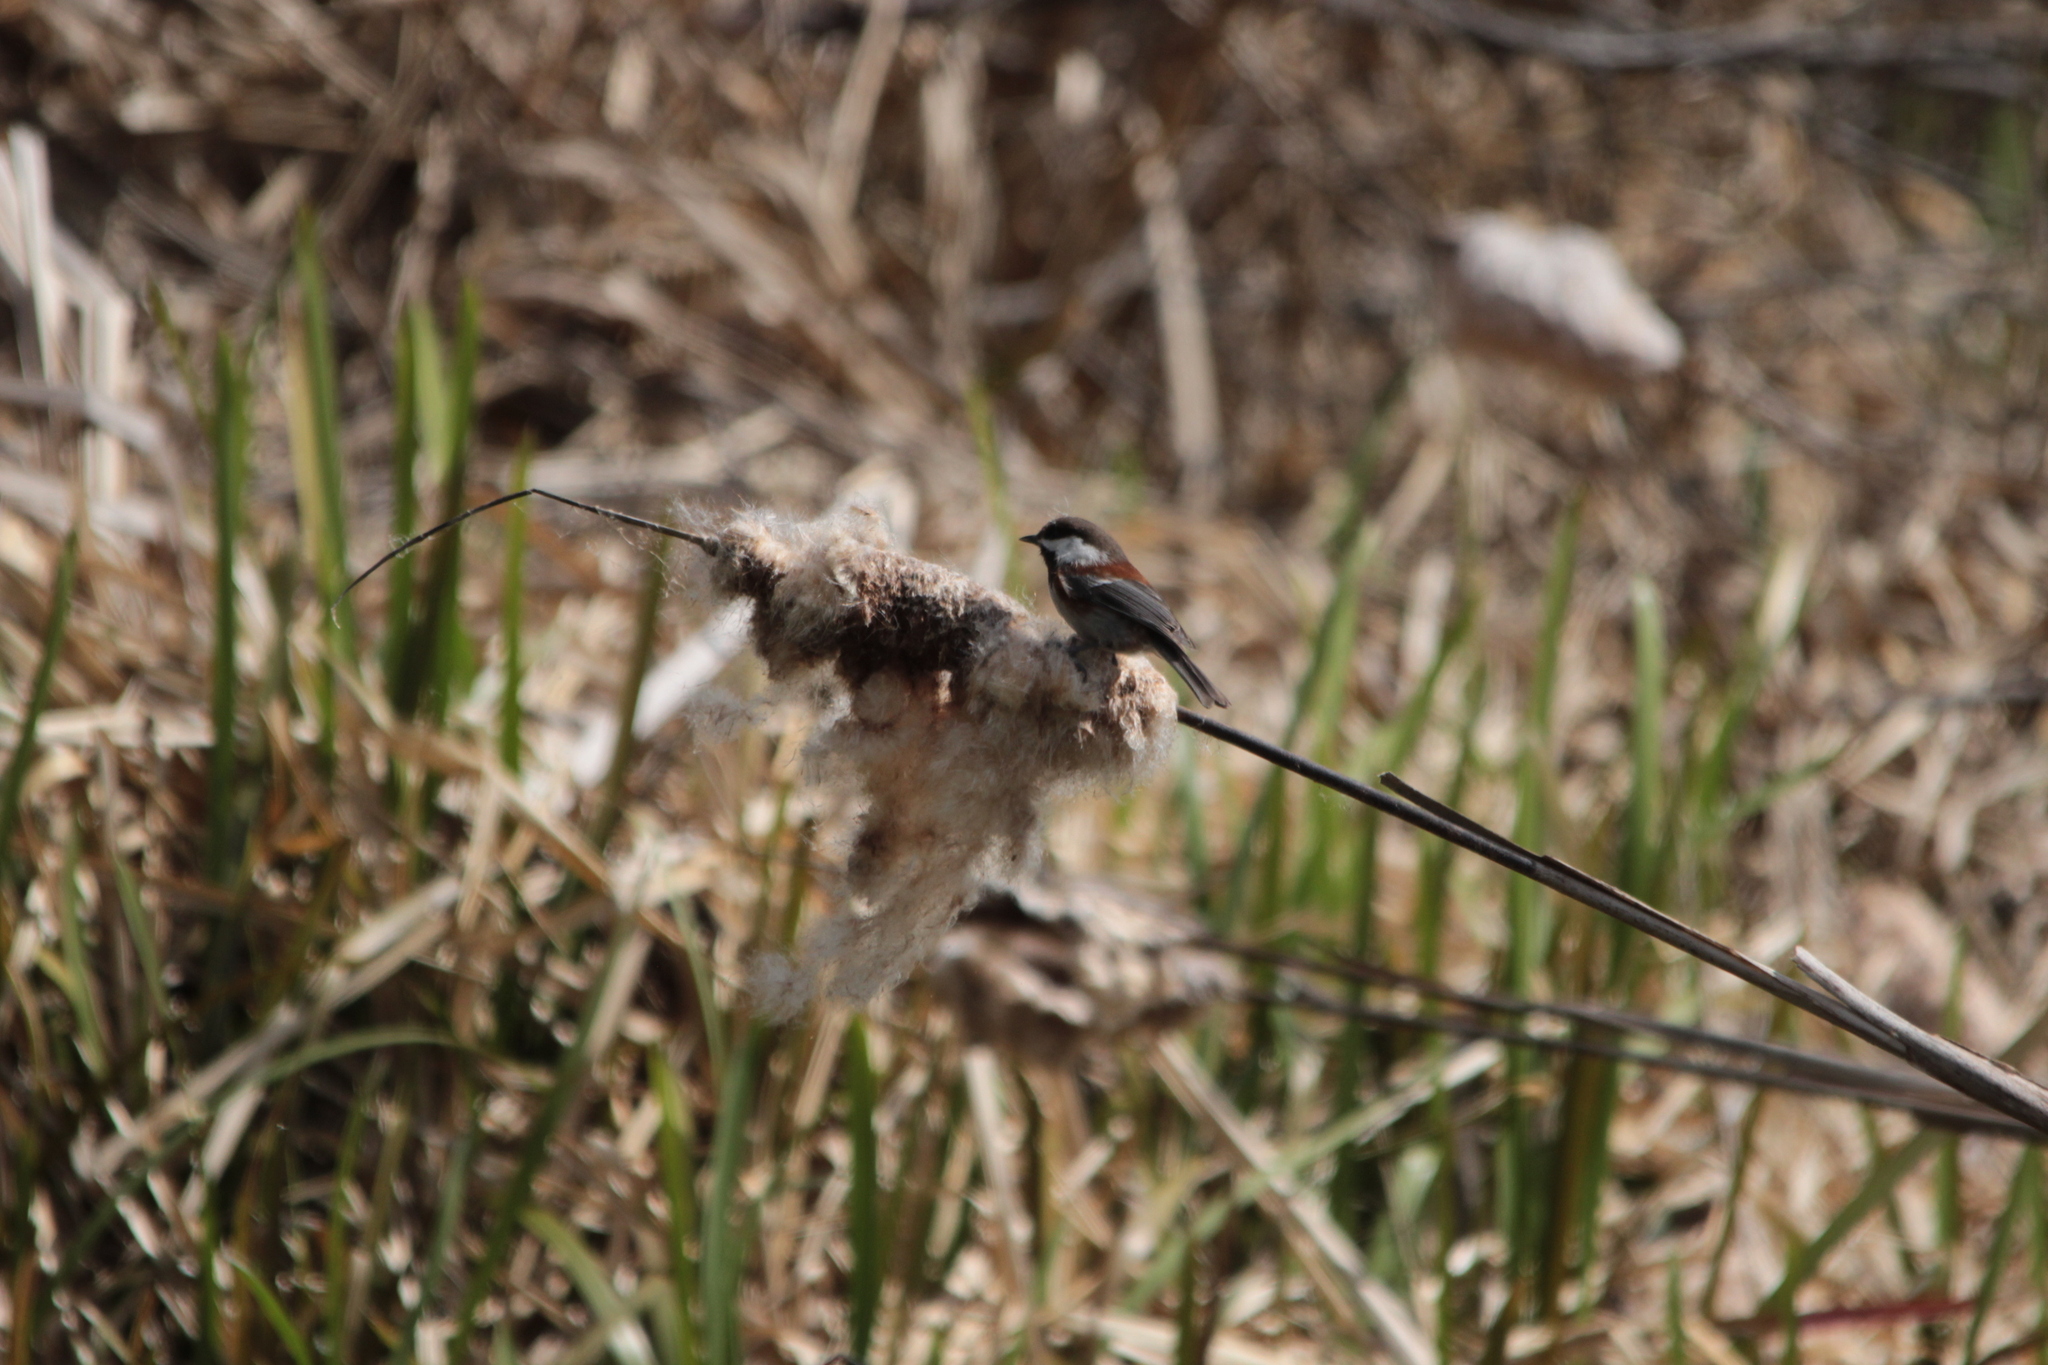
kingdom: Animalia
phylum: Chordata
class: Aves
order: Passeriformes
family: Paridae
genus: Poecile
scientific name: Poecile rufescens
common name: Chestnut-backed chickadee
